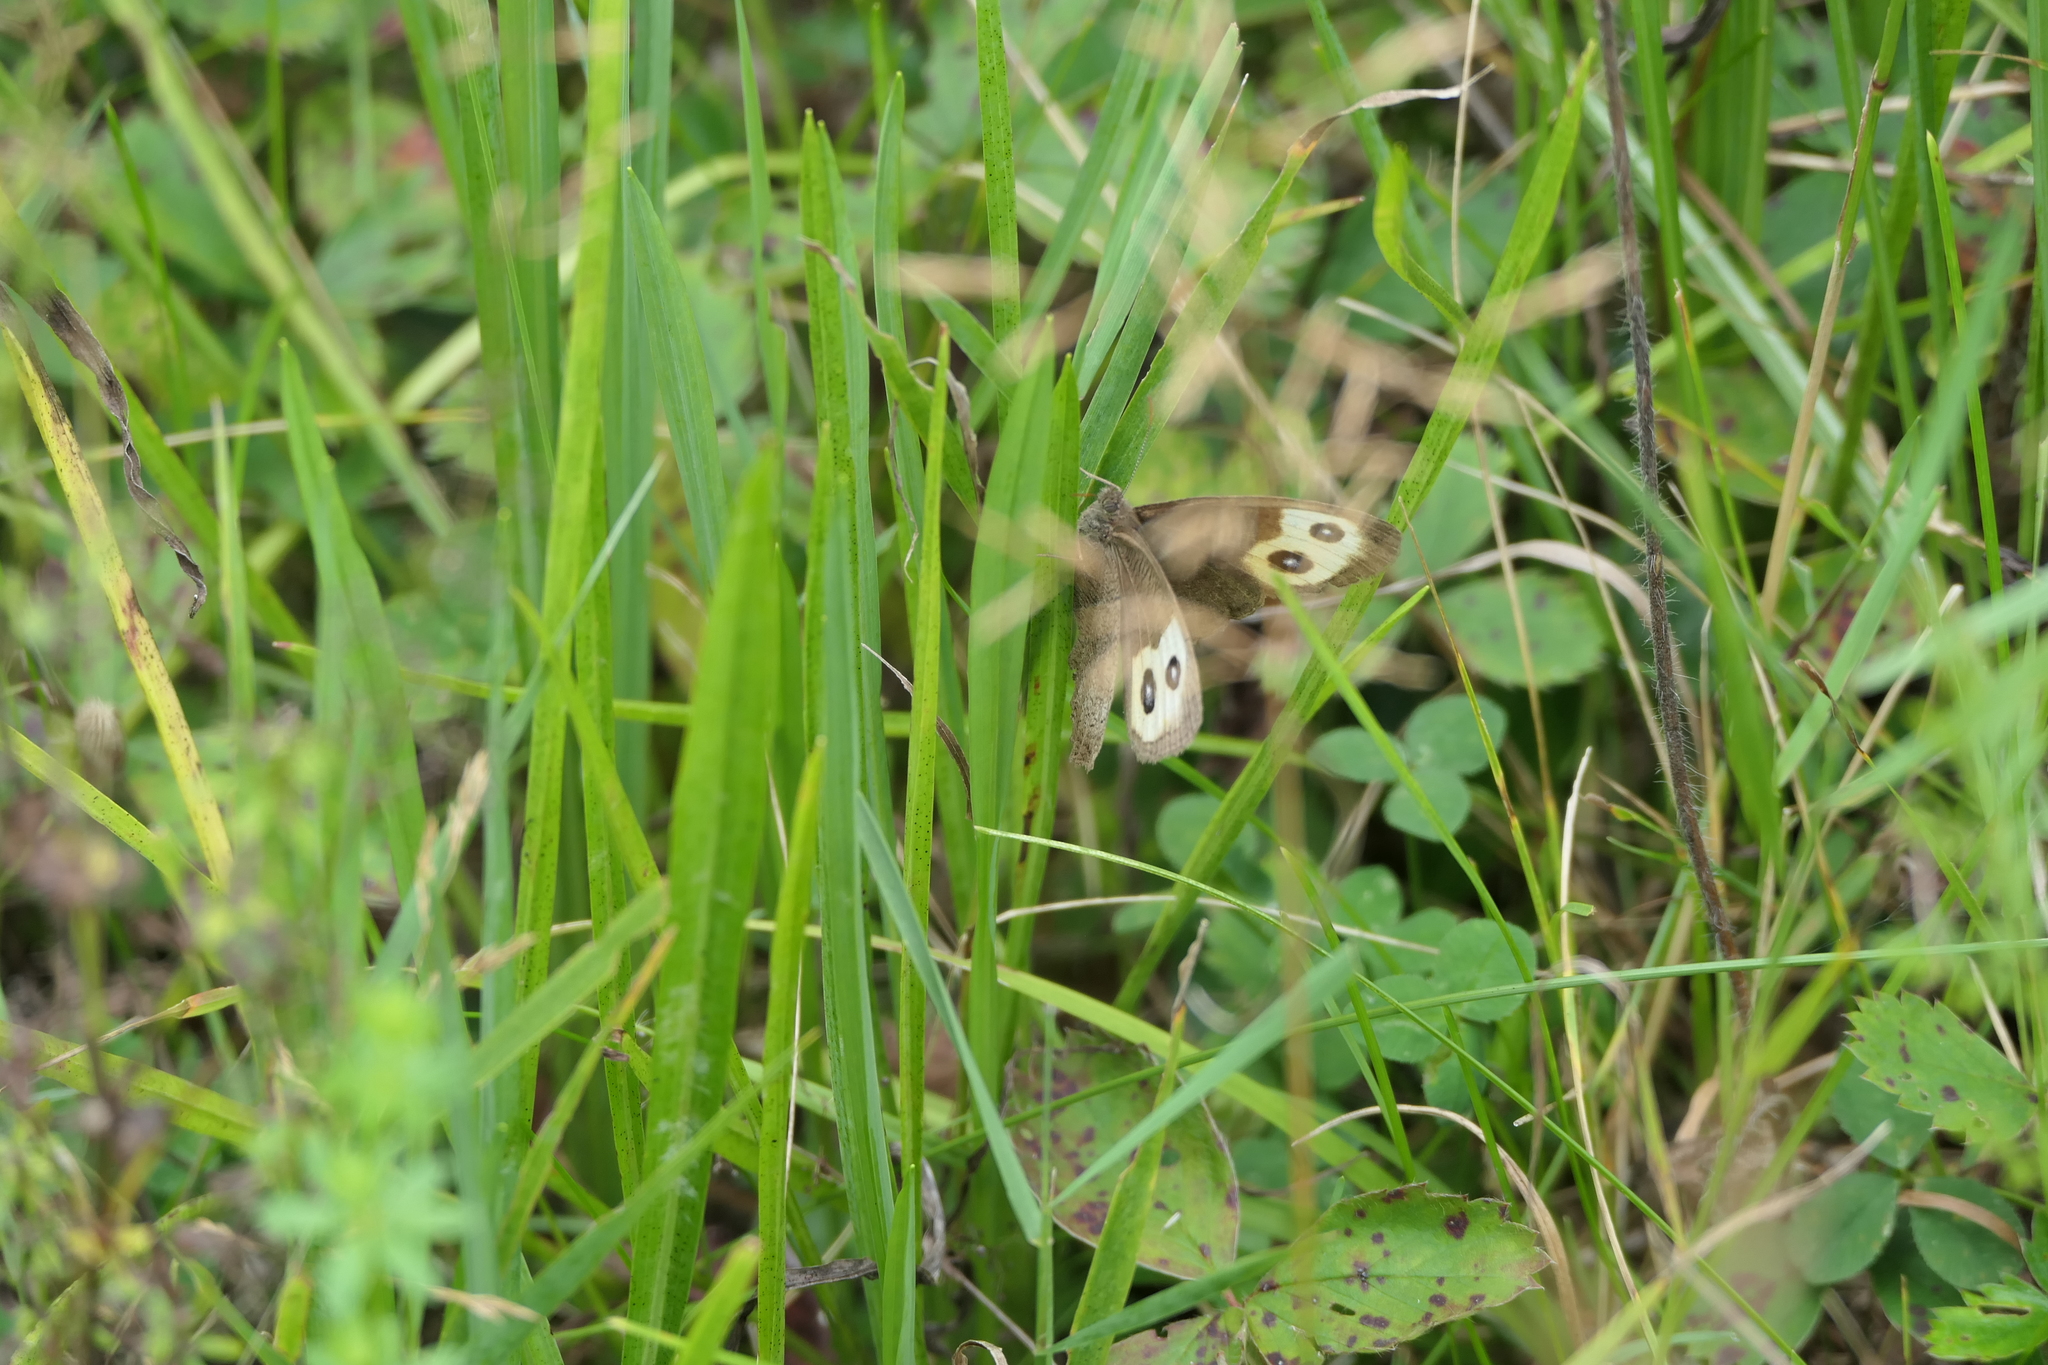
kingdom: Animalia
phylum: Arthropoda
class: Insecta
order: Lepidoptera
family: Nymphalidae
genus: Cercyonis
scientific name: Cercyonis pegala
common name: Common wood-nymph
